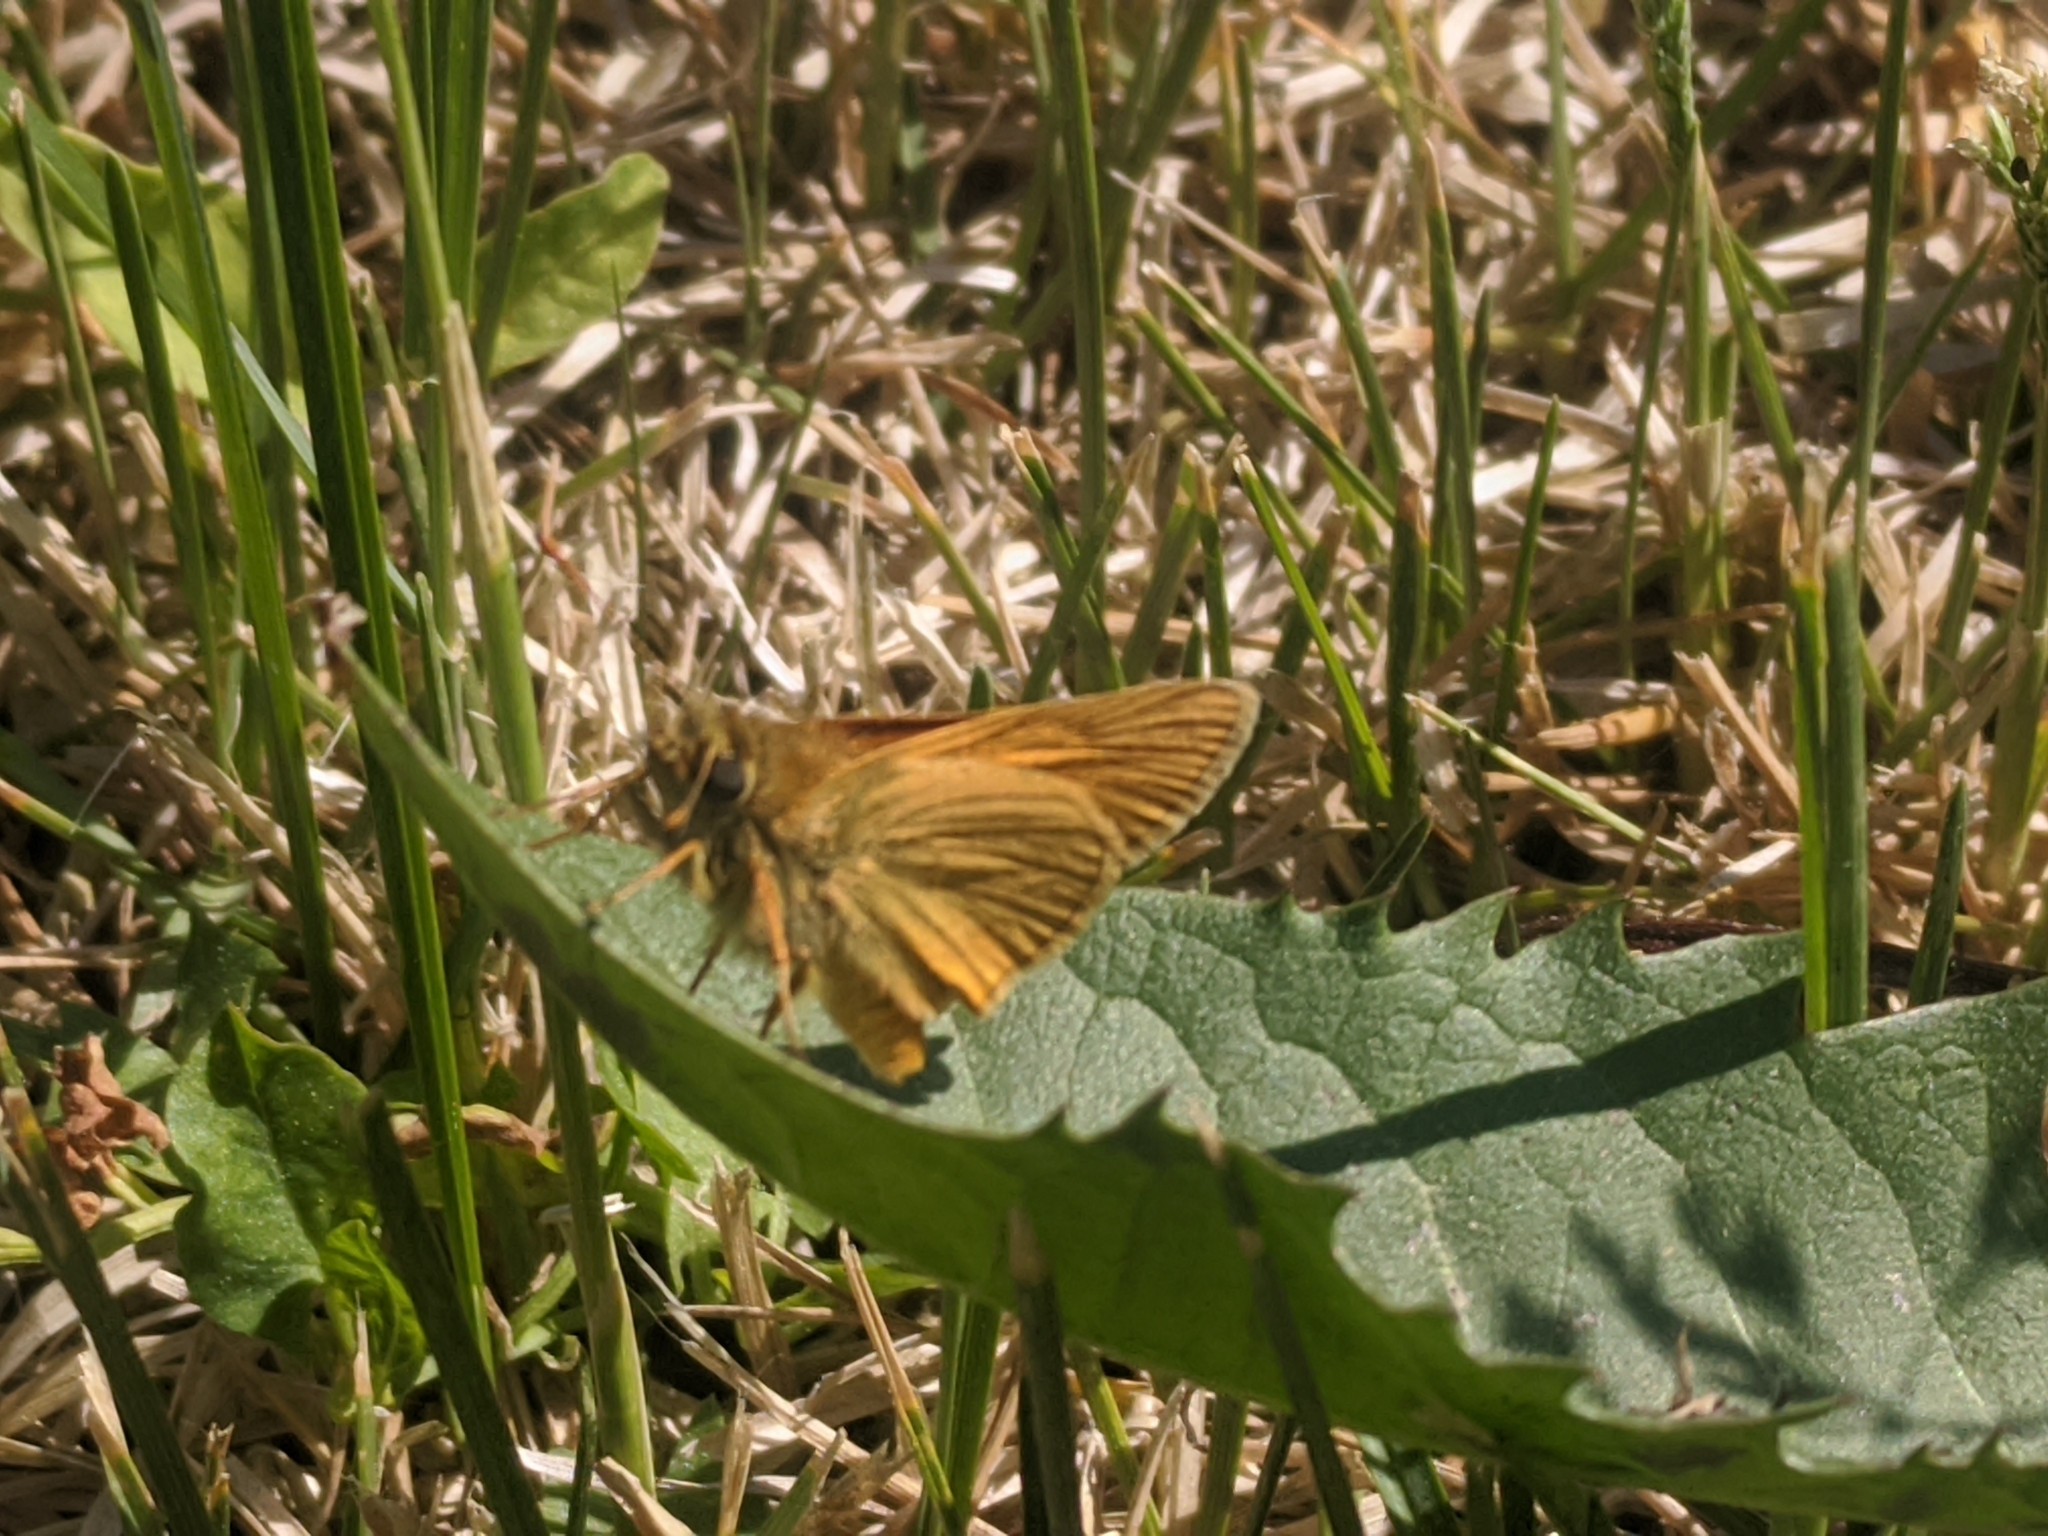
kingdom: Animalia
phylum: Arthropoda
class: Insecta
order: Lepidoptera
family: Hesperiidae
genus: Ochlodes
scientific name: Ochlodes venata
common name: Large skipper
